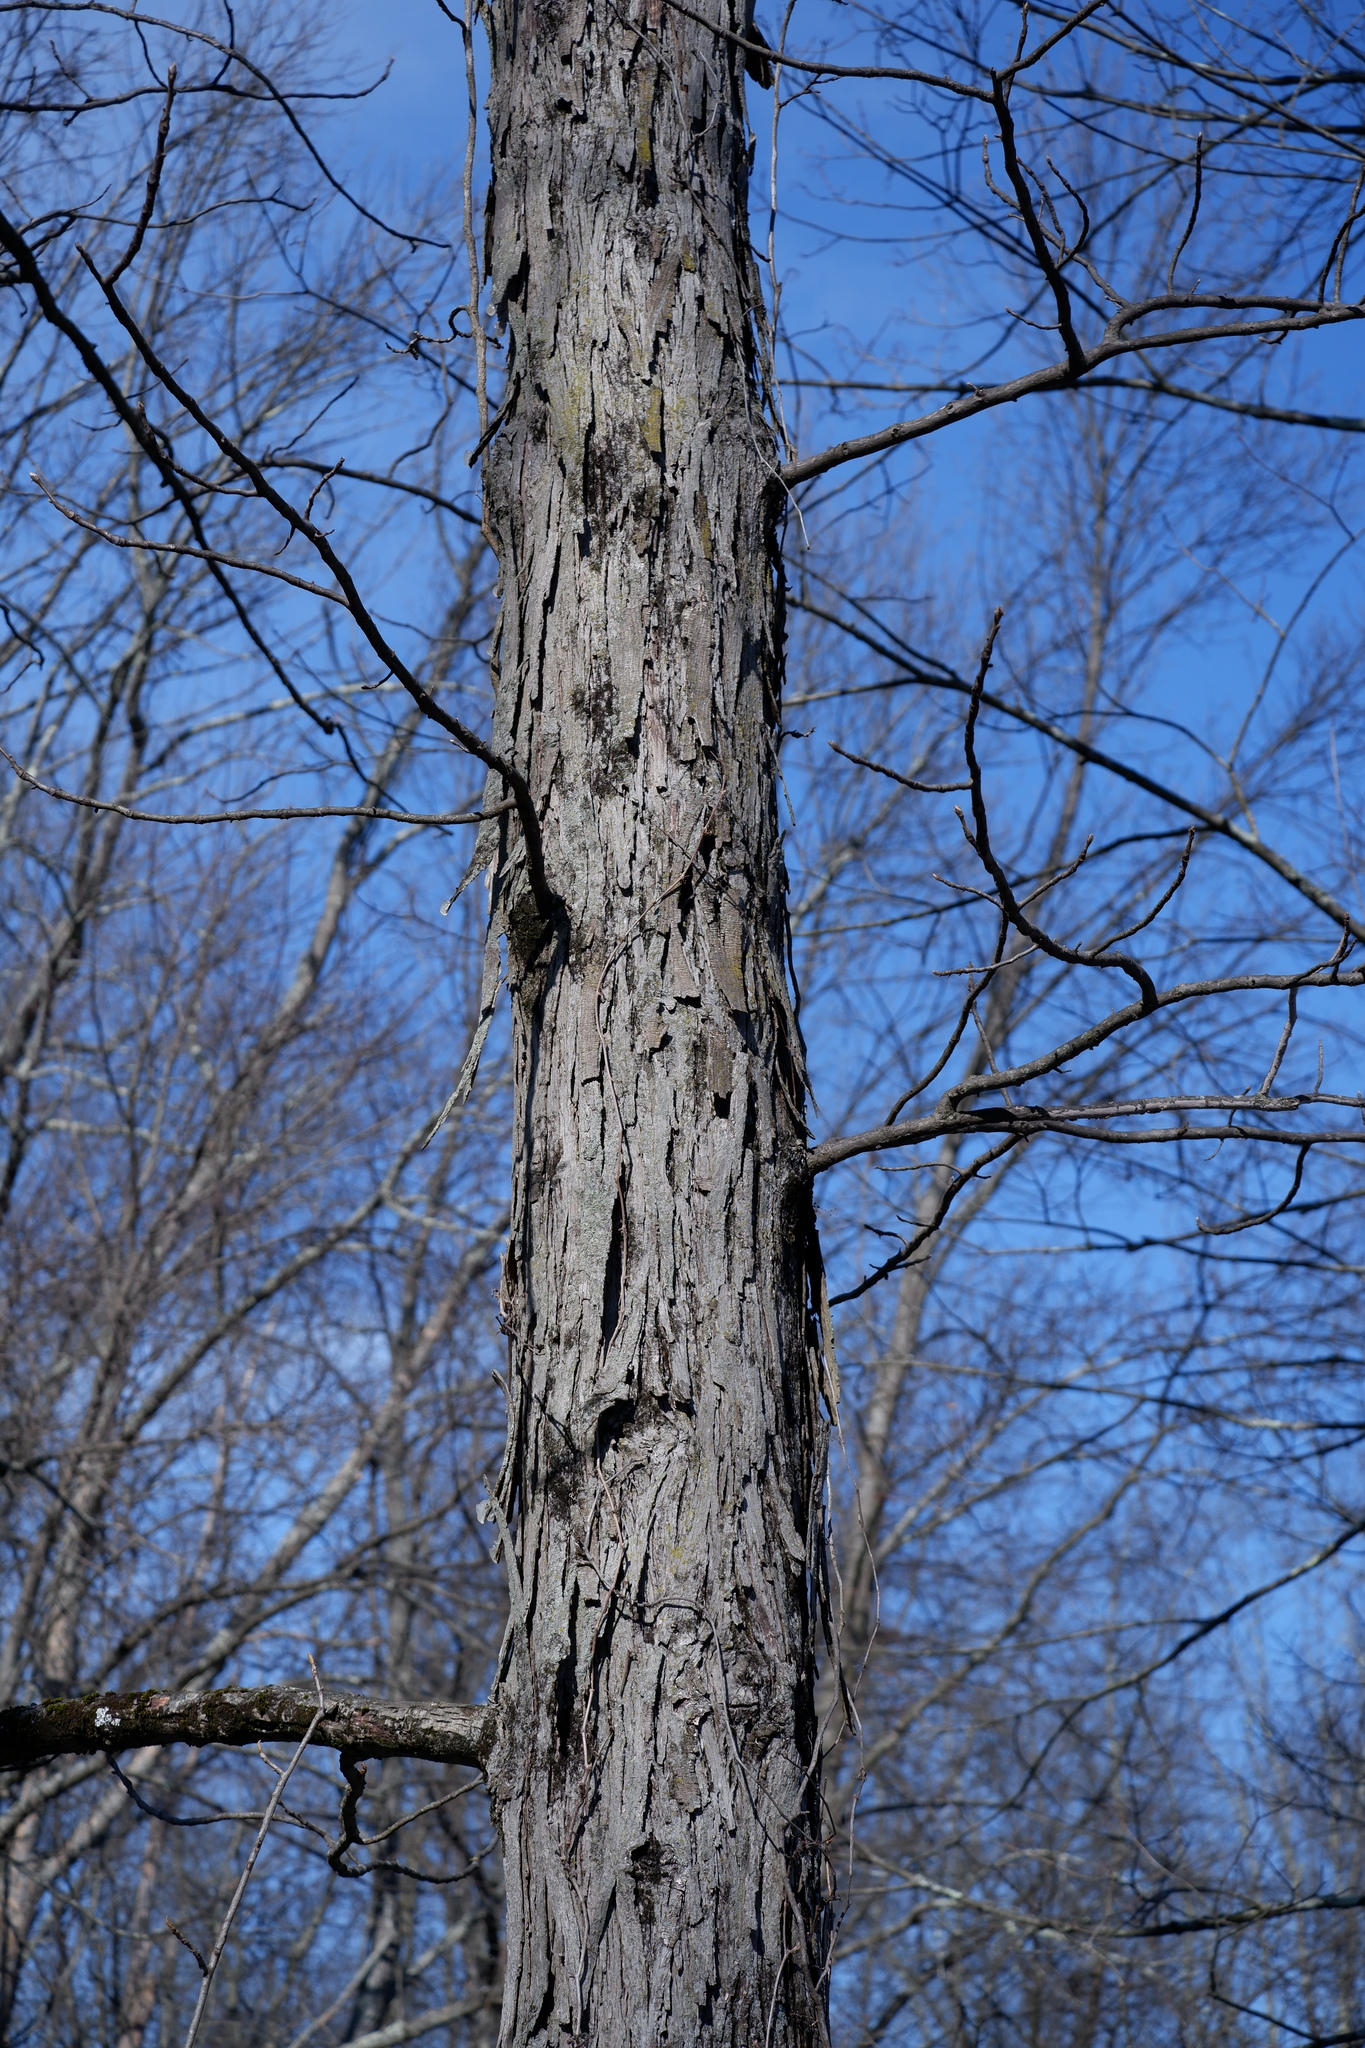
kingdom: Plantae
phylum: Tracheophyta
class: Magnoliopsida
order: Fagales
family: Juglandaceae
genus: Carya
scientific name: Carya ovata
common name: Shagbark hickory
